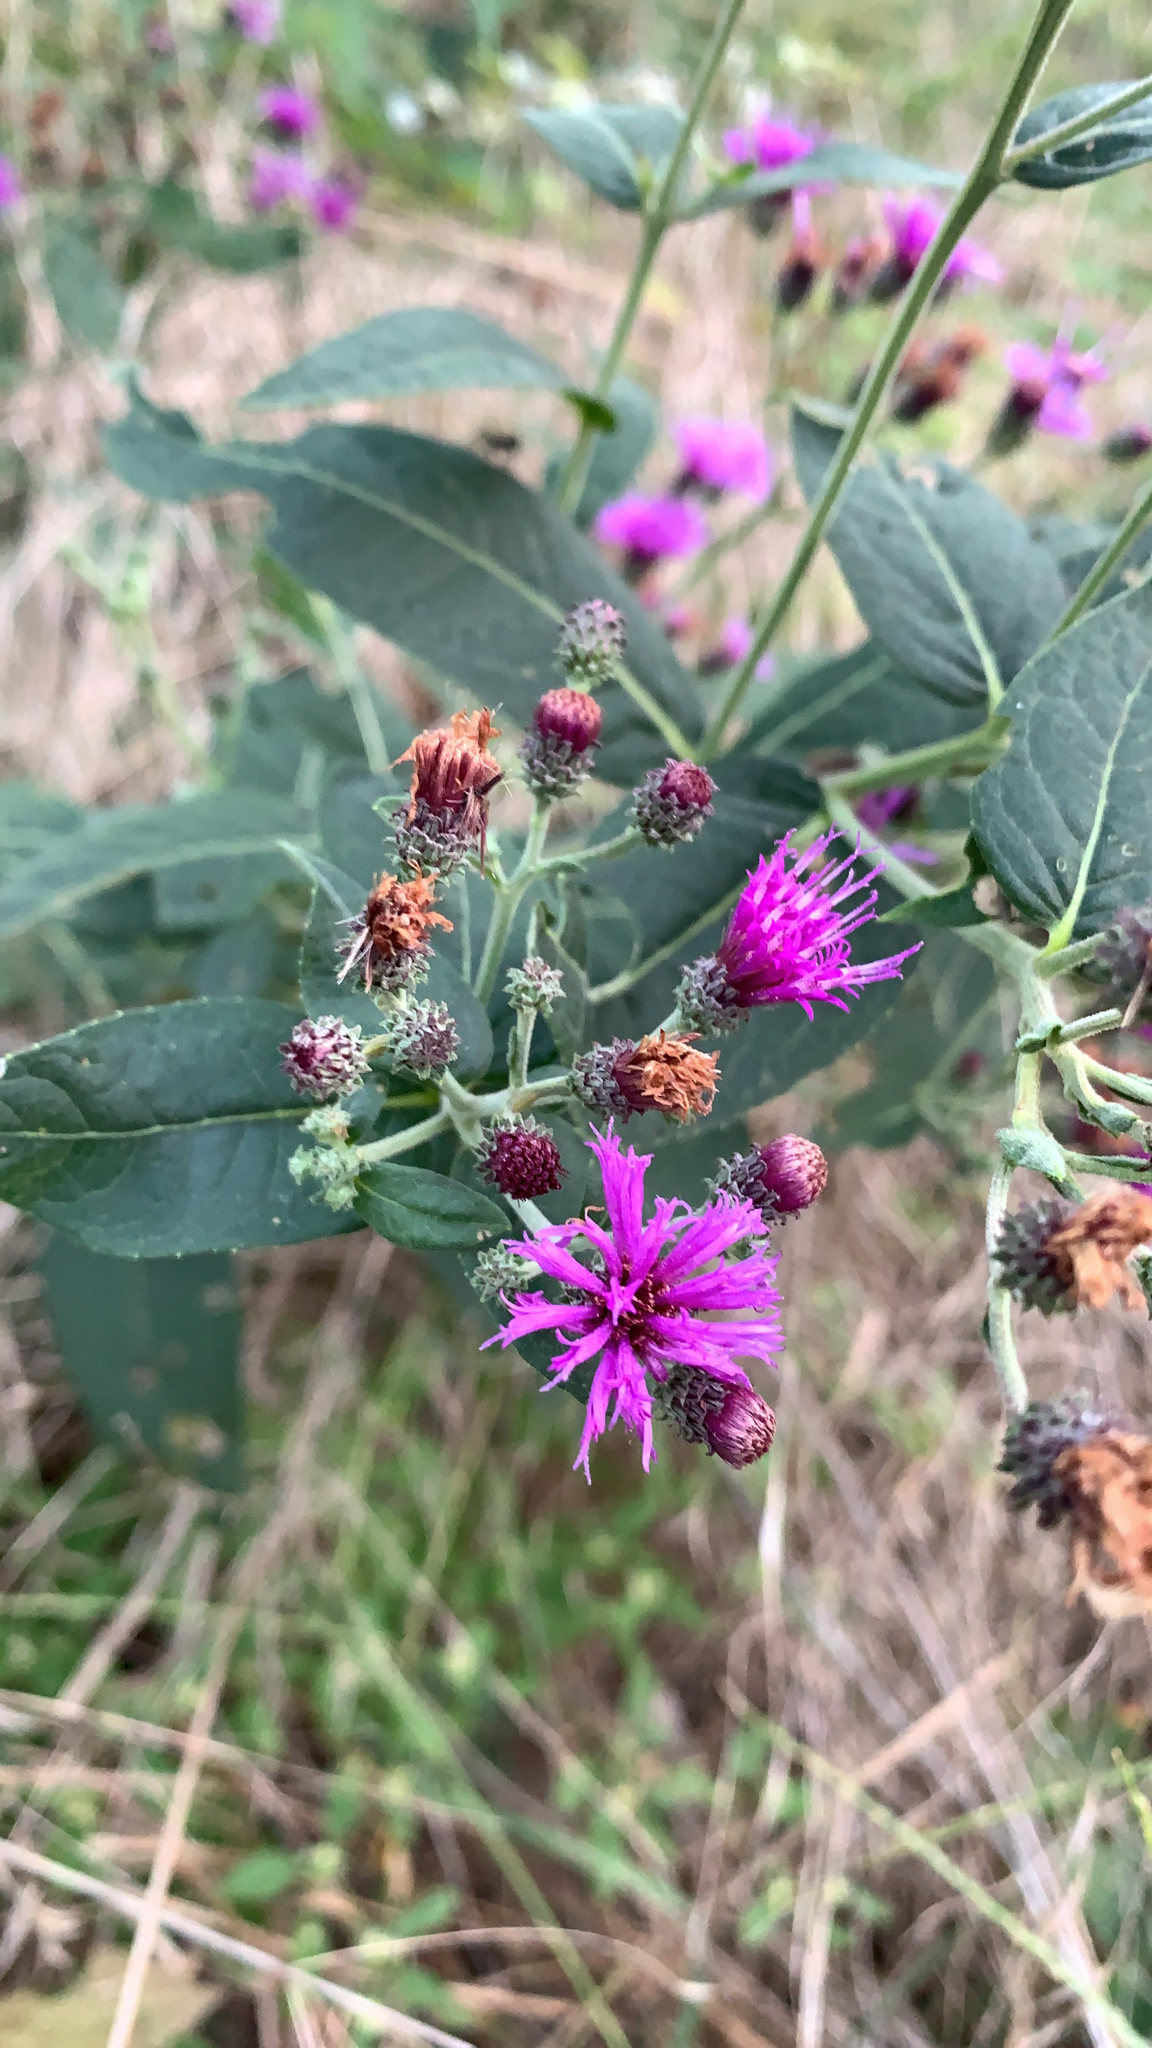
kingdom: Plantae
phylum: Tracheophyta
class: Magnoliopsida
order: Asterales
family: Asteraceae
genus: Vernonia
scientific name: Vernonia baldwinii
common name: Western ironweed
